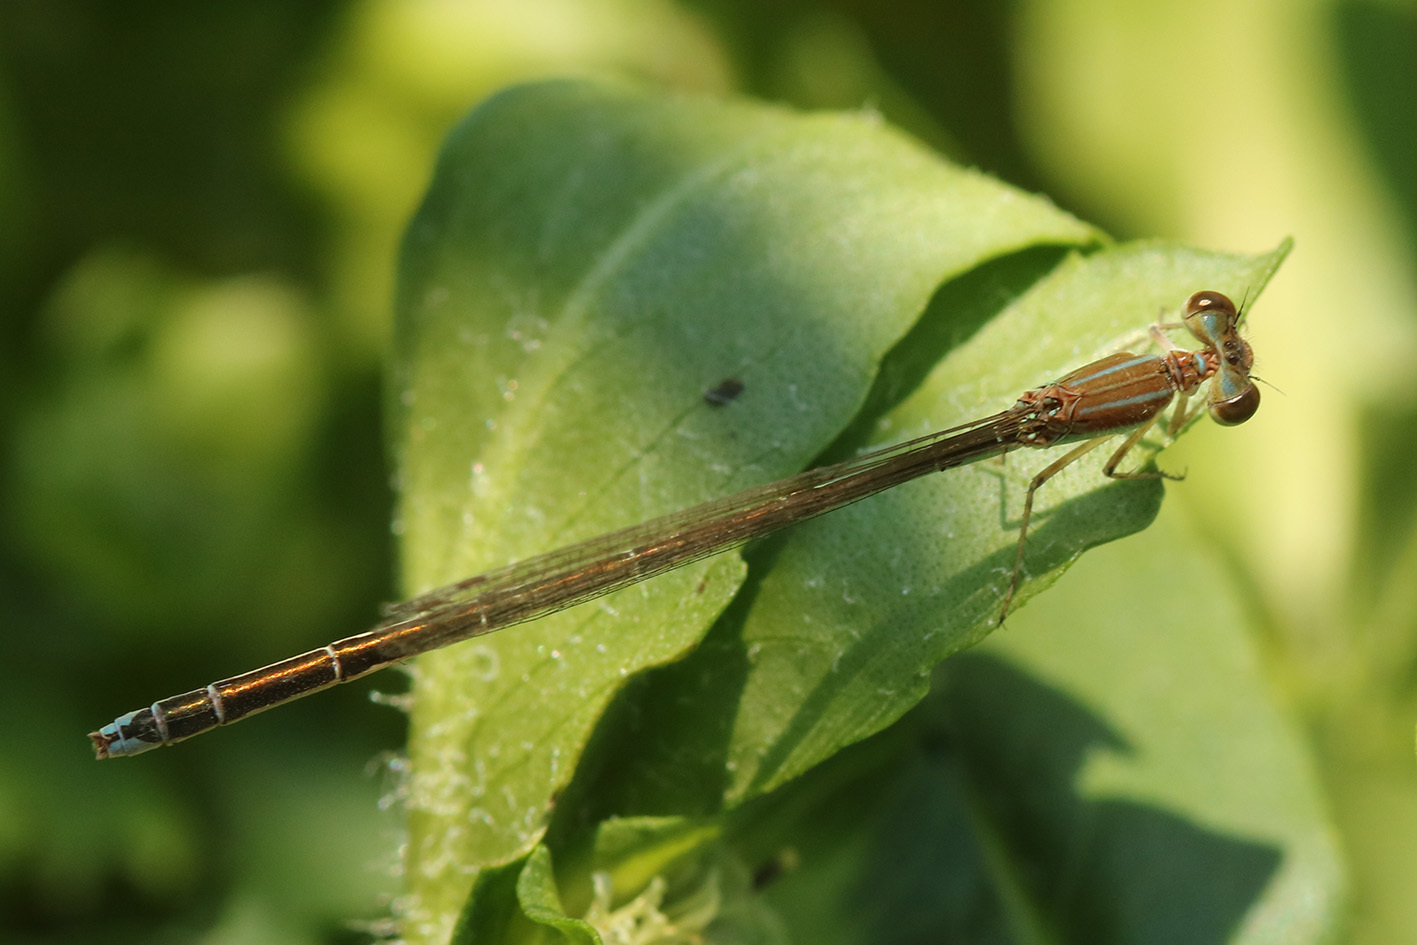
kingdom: Animalia
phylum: Arthropoda
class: Insecta
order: Odonata
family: Coenagrionidae
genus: Argentagrion
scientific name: Argentagrion ambiguum
